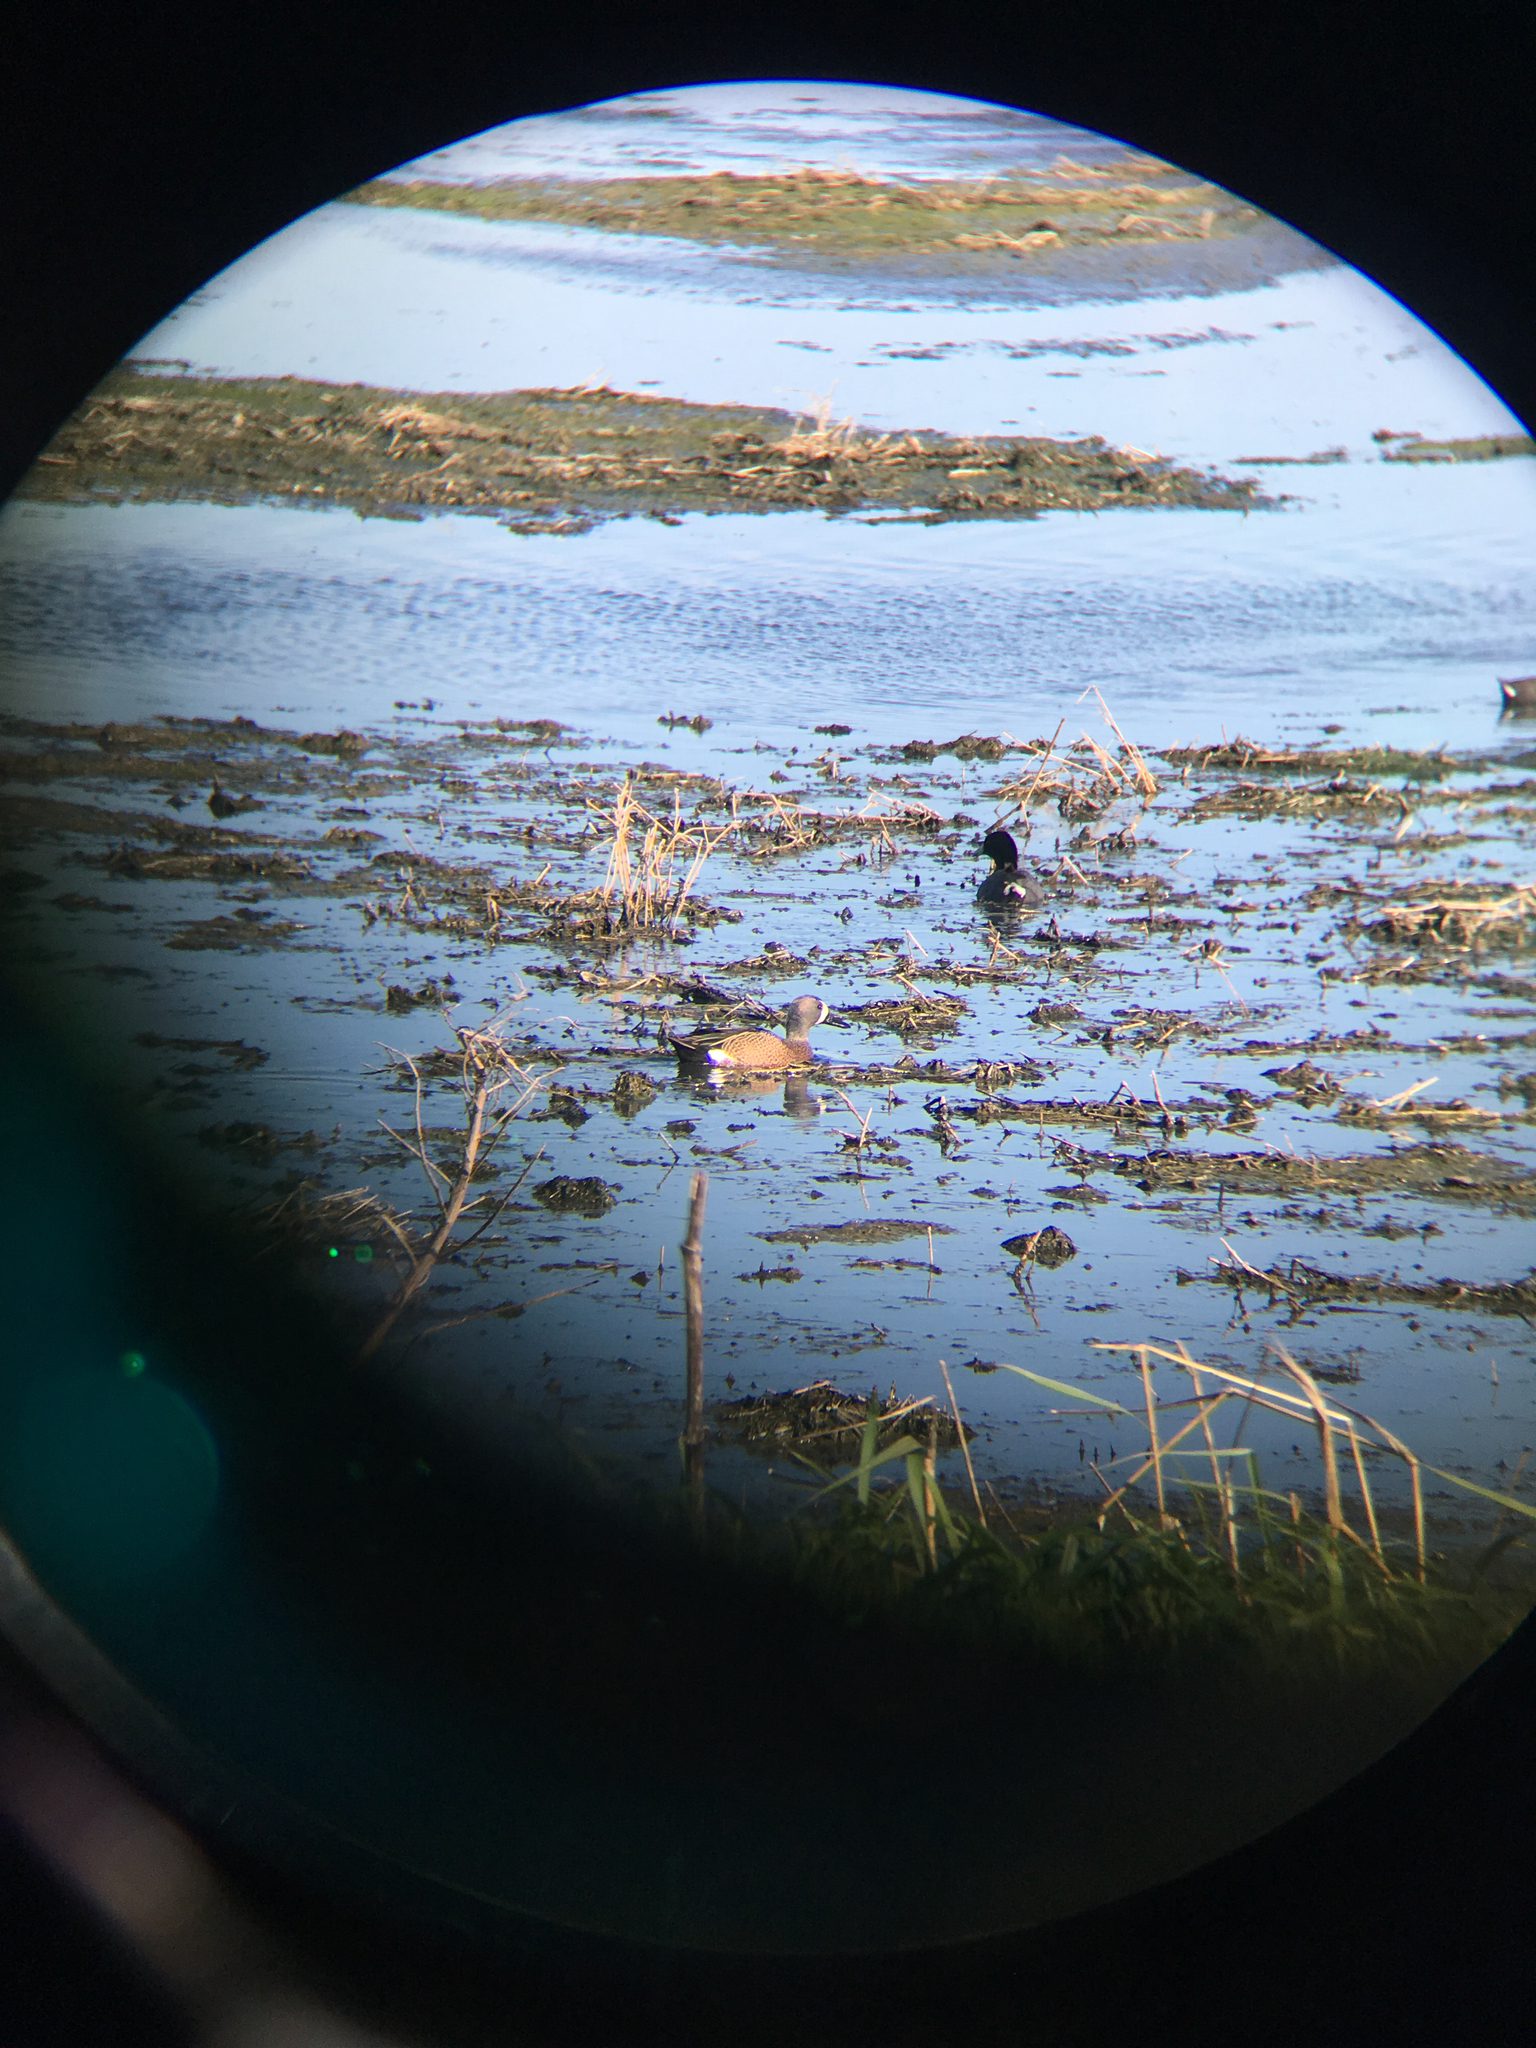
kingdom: Animalia
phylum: Chordata
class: Aves
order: Anseriformes
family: Anatidae
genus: Spatula
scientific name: Spatula discors
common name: Blue-winged teal
